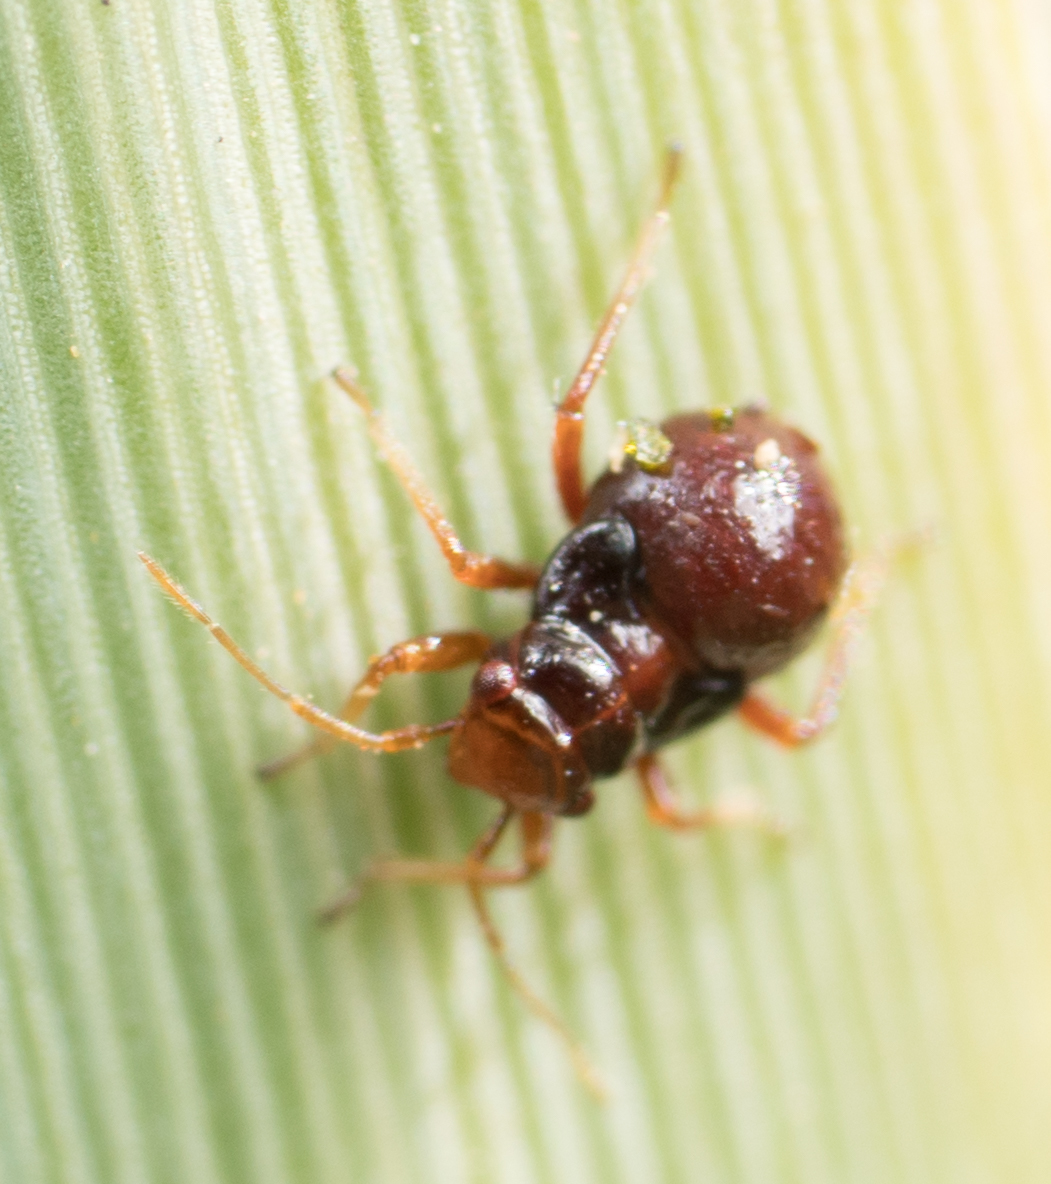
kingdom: Animalia
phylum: Arthropoda
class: Insecta
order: Hemiptera
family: Miridae
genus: Halticotoma
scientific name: Halticotoma valida
